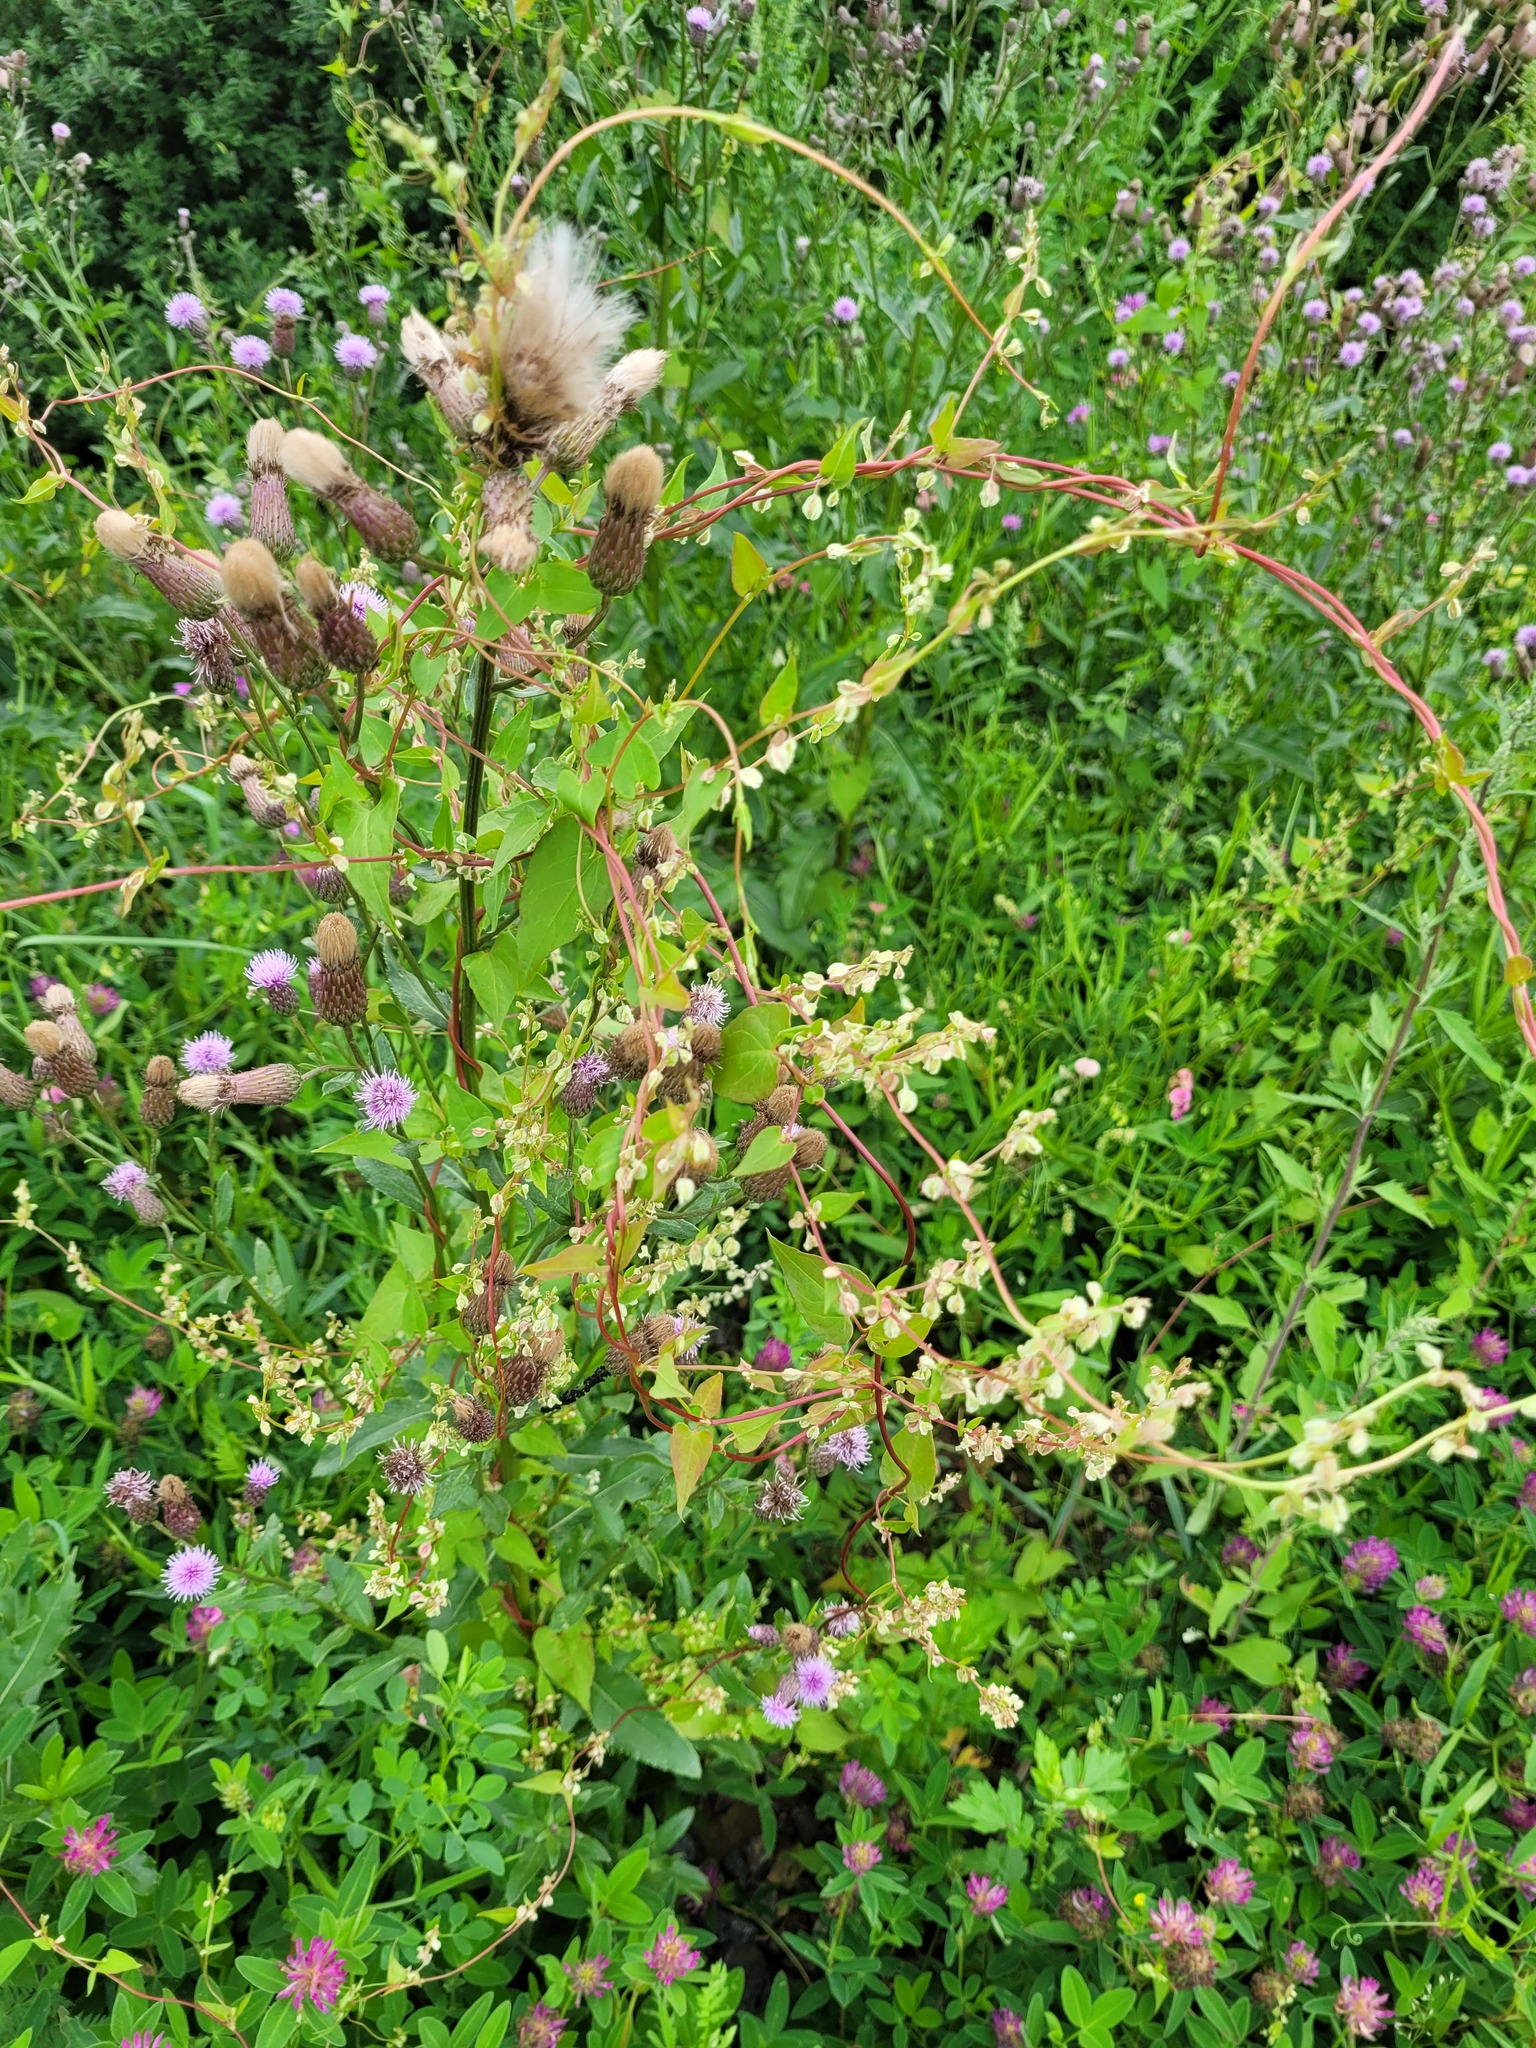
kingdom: Plantae
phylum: Tracheophyta
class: Magnoliopsida
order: Caryophyllales
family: Polygonaceae
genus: Fallopia
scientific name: Fallopia dumetorum
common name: Copse-bindweed
